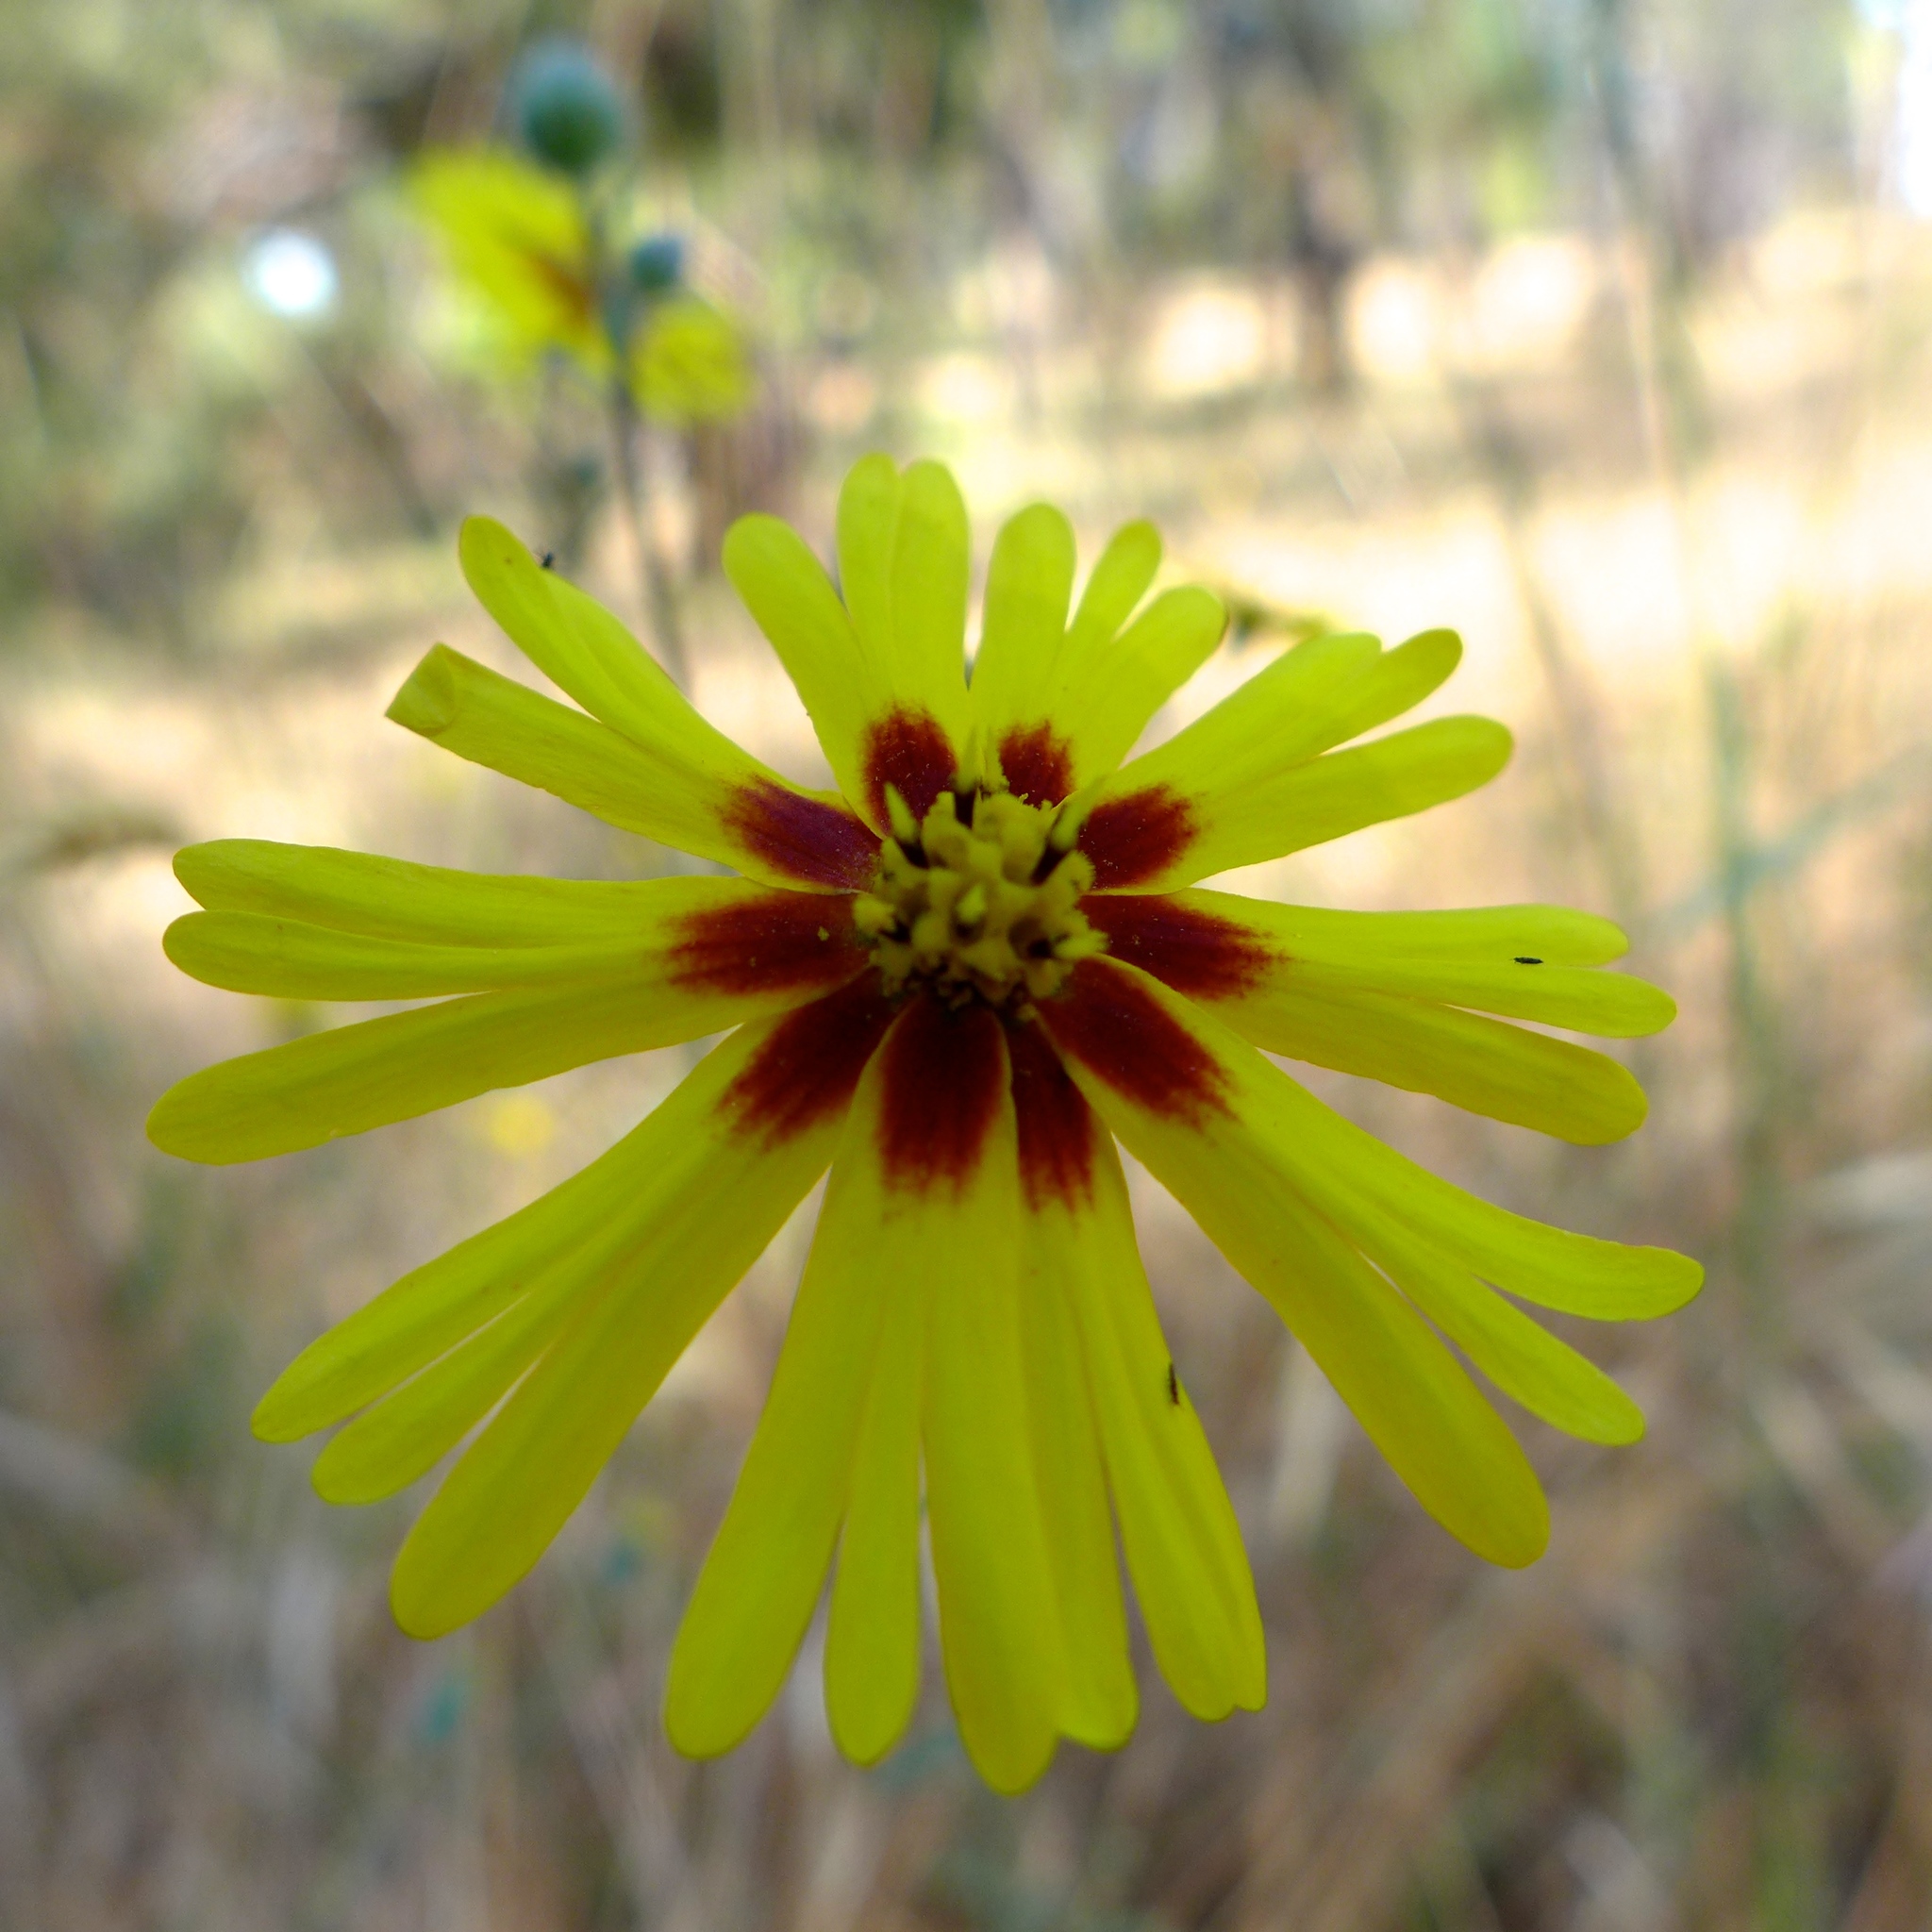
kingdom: Plantae
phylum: Tracheophyta
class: Magnoliopsida
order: Asterales
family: Asteraceae
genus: Madia
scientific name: Madia elegans
